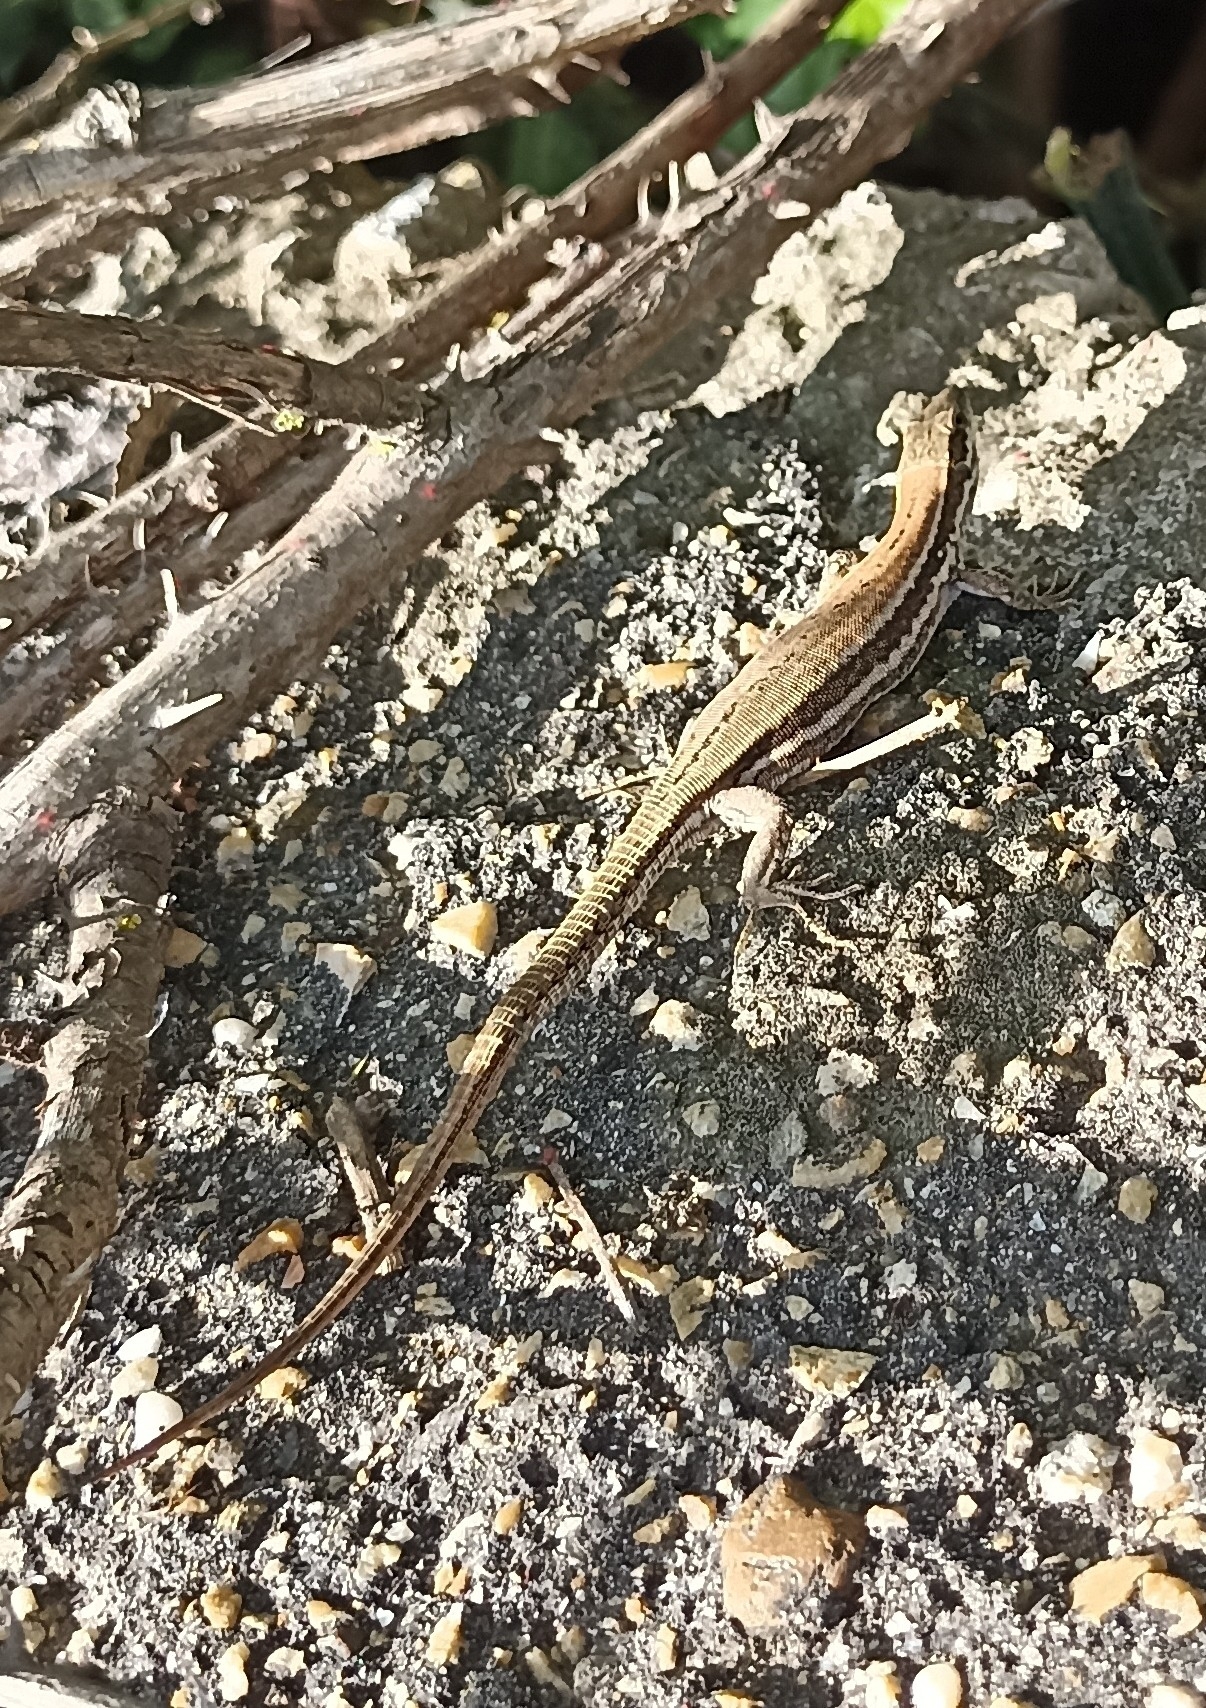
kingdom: Animalia
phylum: Chordata
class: Squamata
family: Lacertidae
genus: Podarcis
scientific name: Podarcis muralis
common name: Common wall lizard
